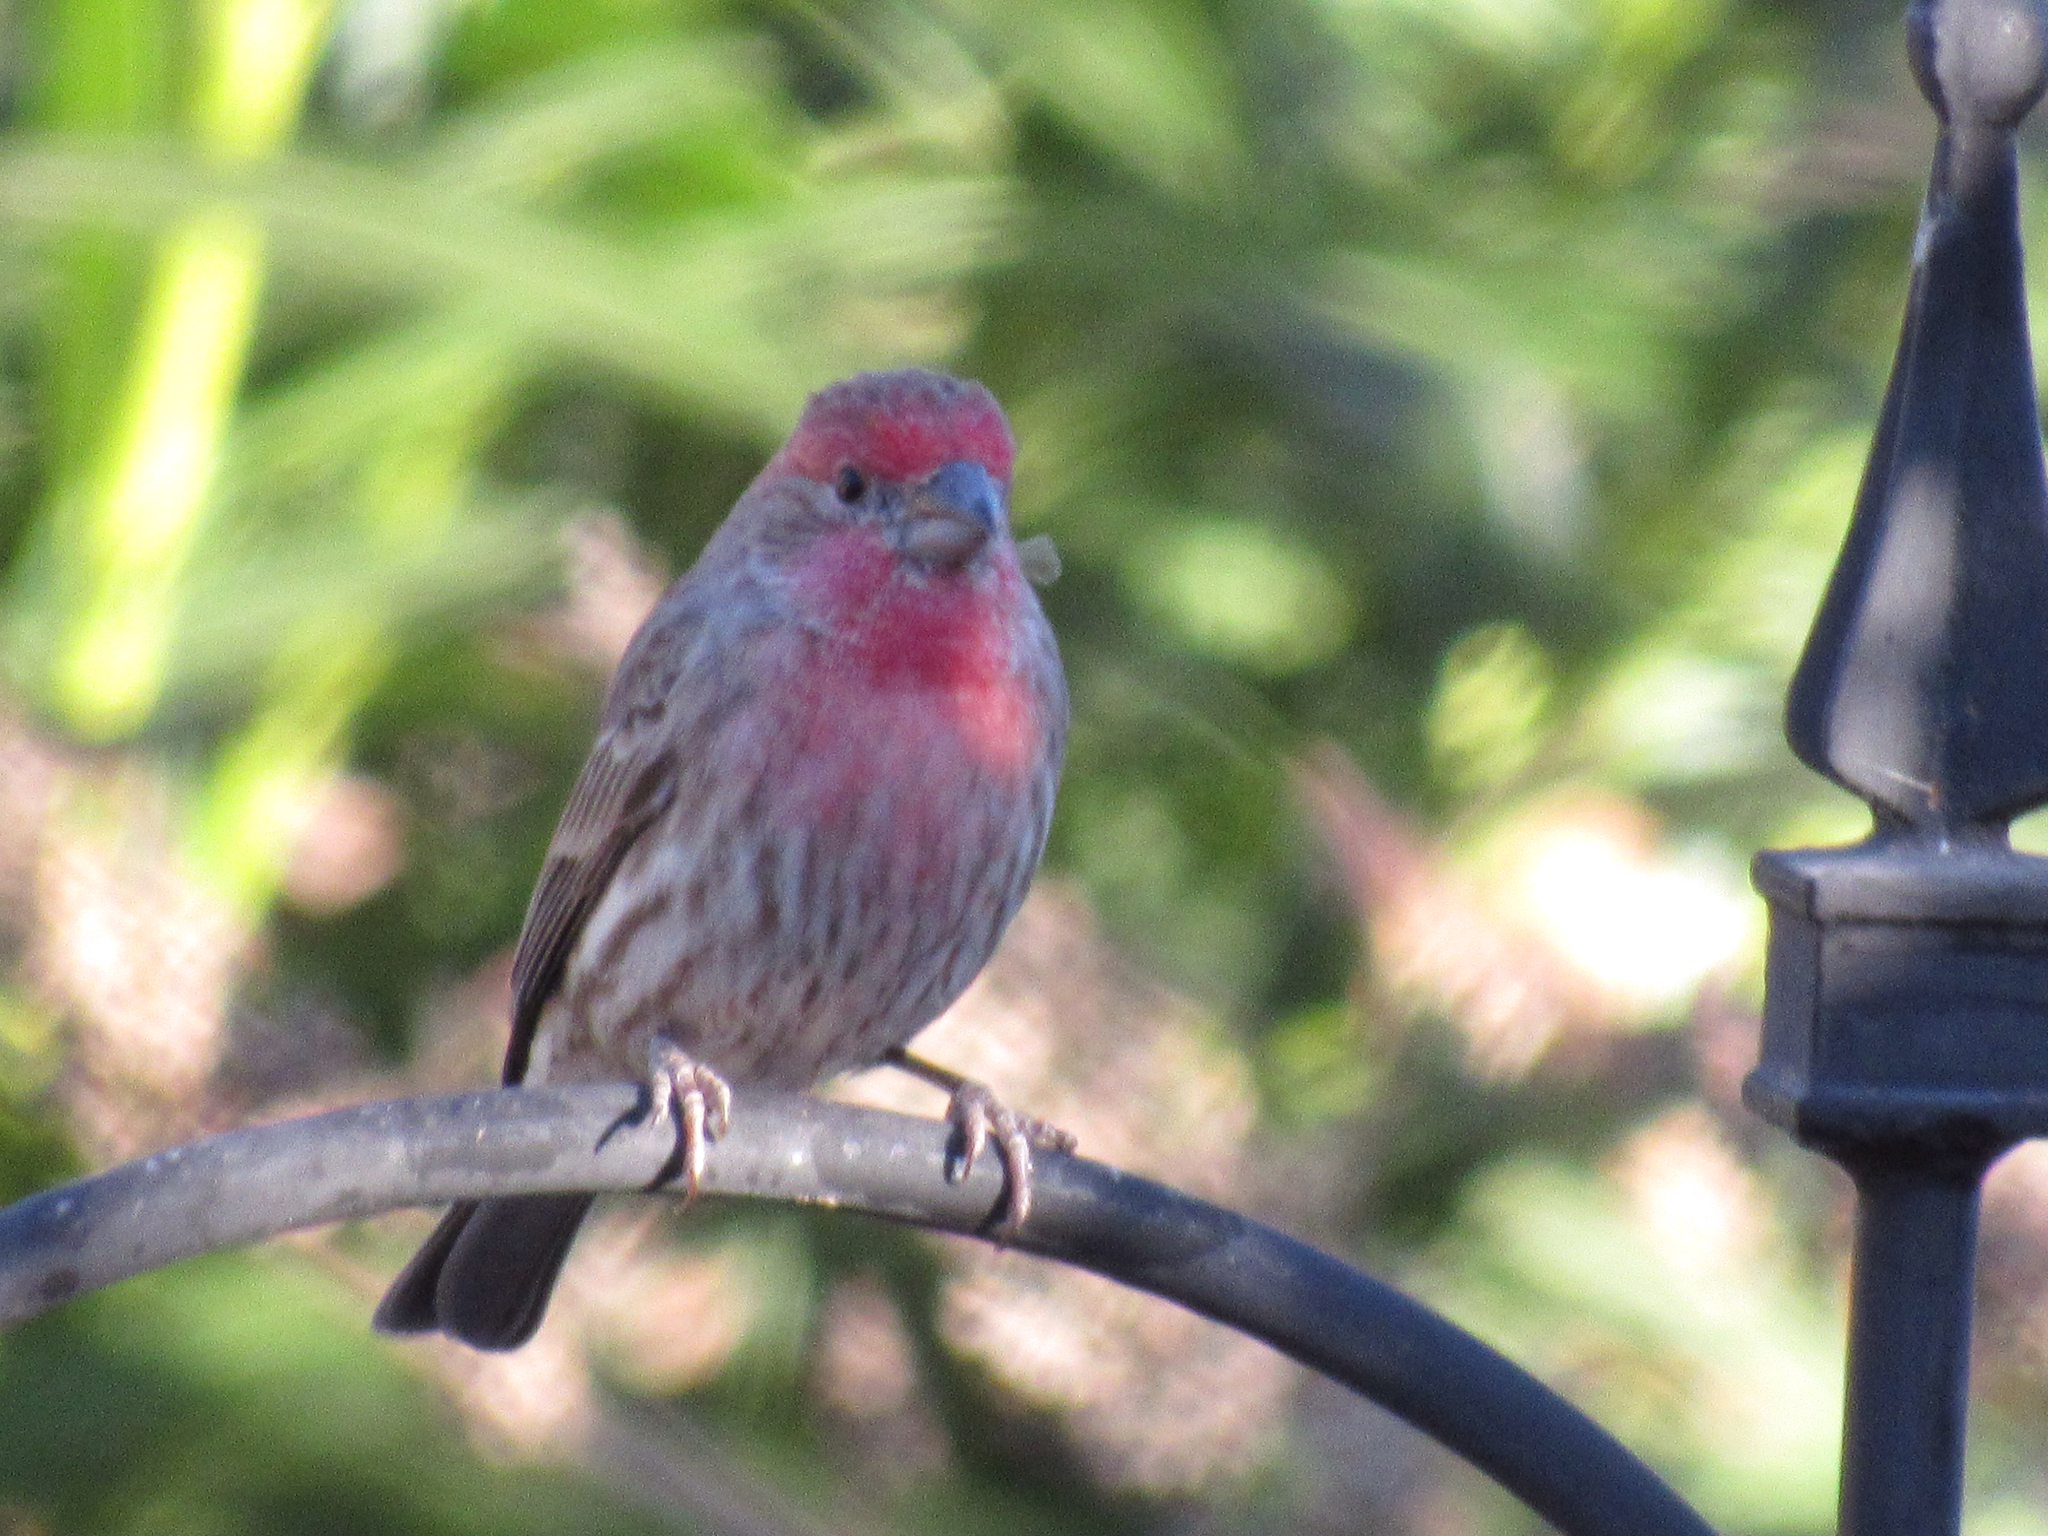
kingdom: Animalia
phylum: Chordata
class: Aves
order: Passeriformes
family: Fringillidae
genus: Haemorhous
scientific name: Haemorhous mexicanus
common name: House finch
